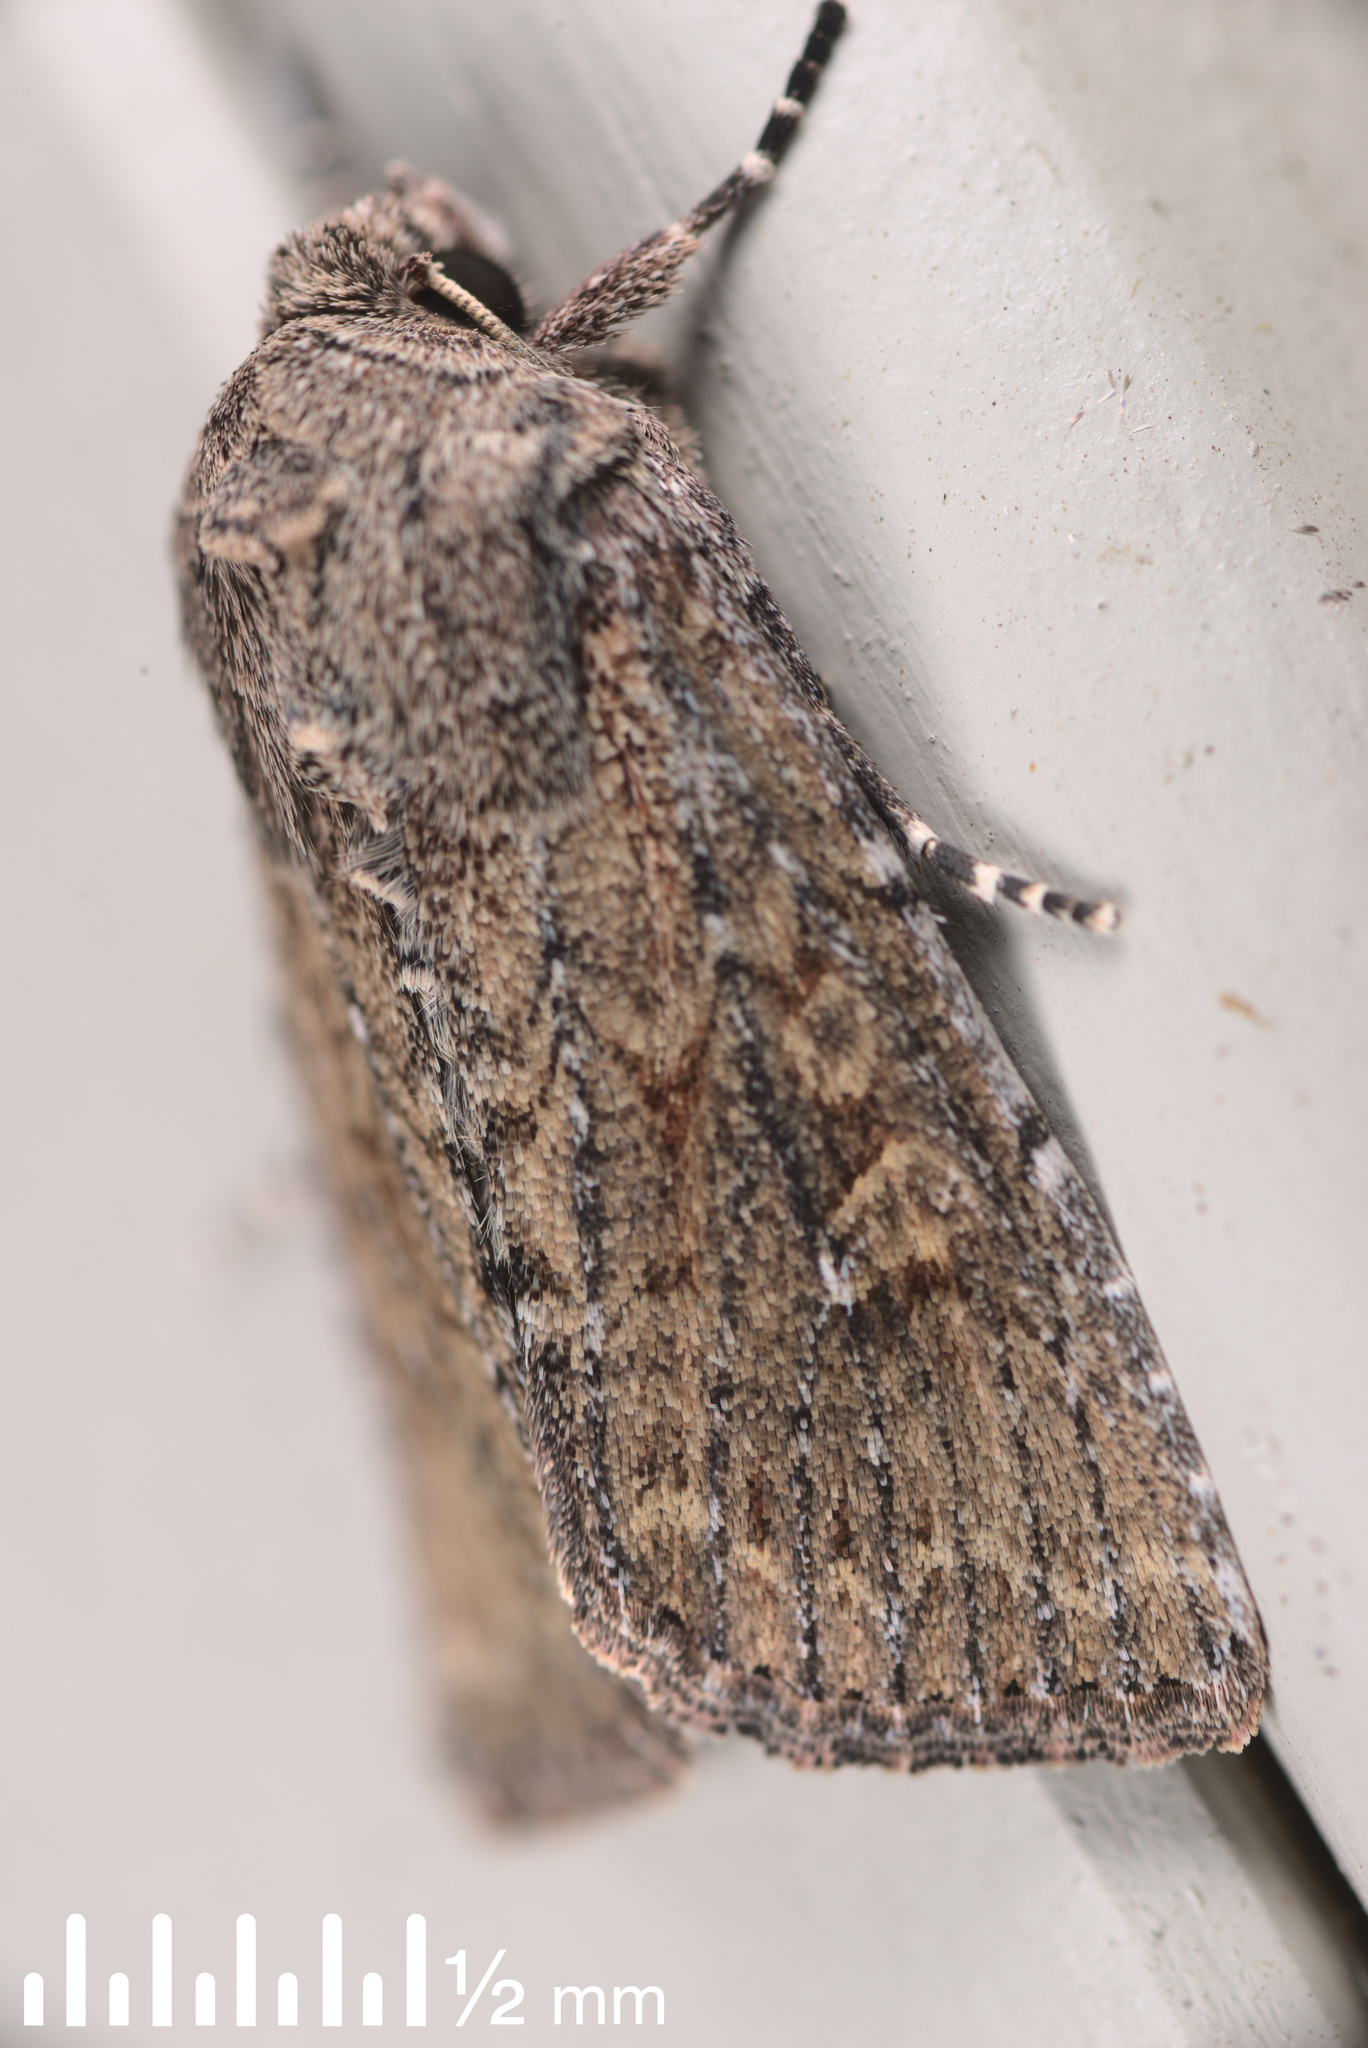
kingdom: Animalia
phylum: Arthropoda
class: Insecta
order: Lepidoptera
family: Noctuidae
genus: Ichneutica
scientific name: Ichneutica
